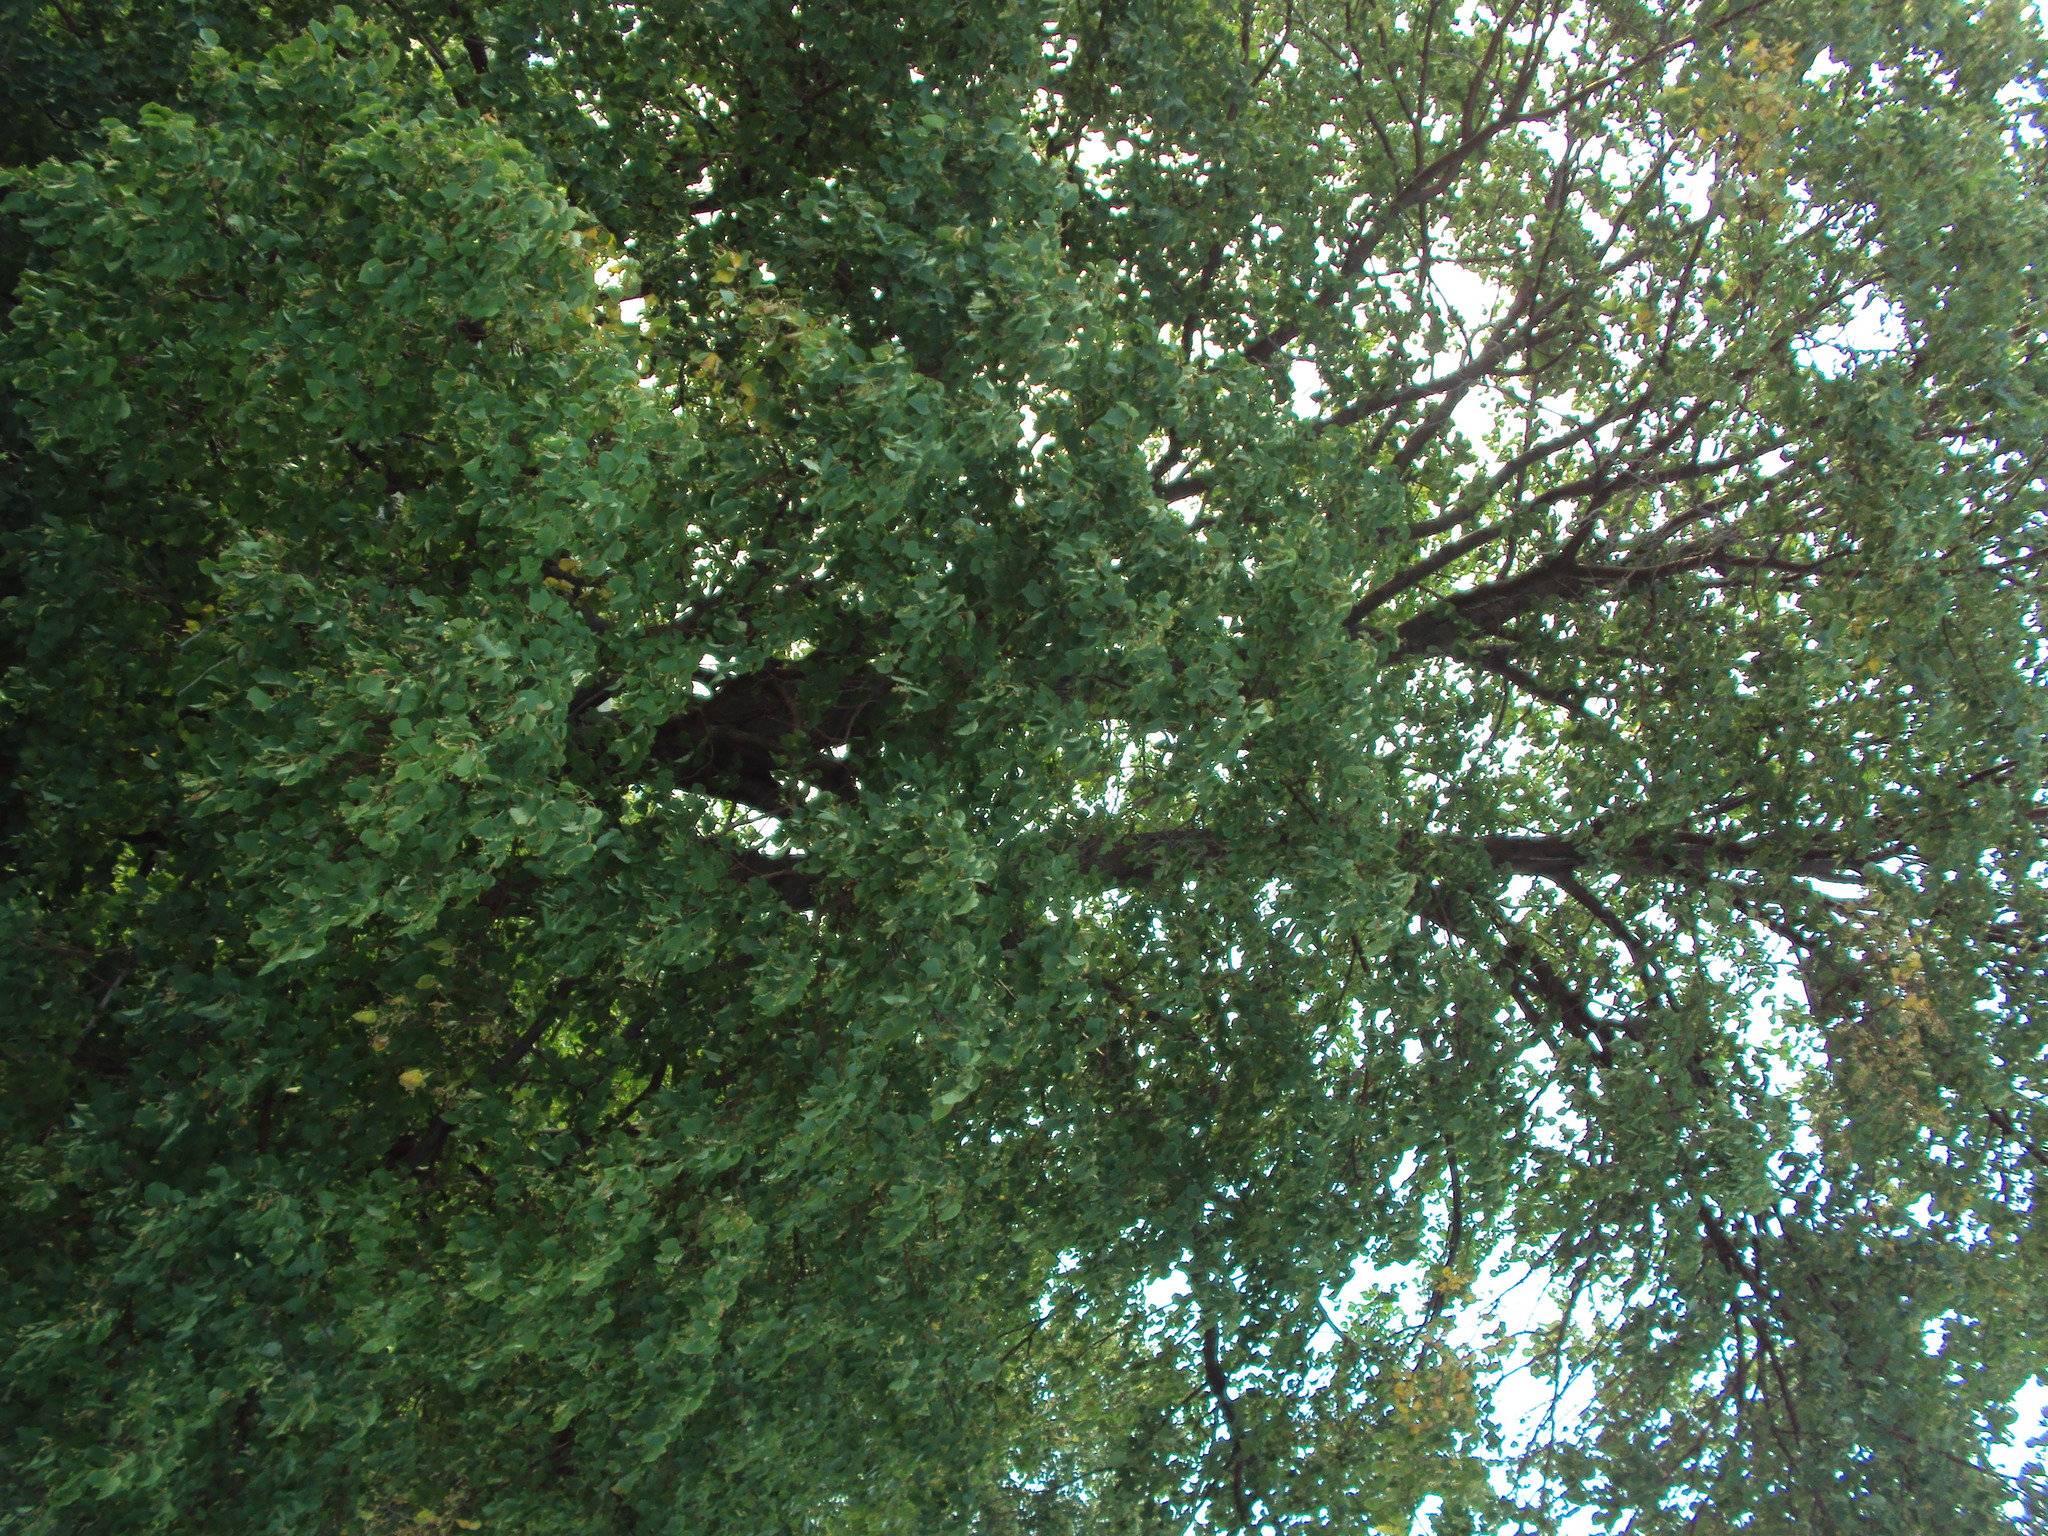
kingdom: Plantae
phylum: Tracheophyta
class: Magnoliopsida
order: Malvales
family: Malvaceae
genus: Tilia
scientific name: Tilia cordata
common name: Small-leaved lime
